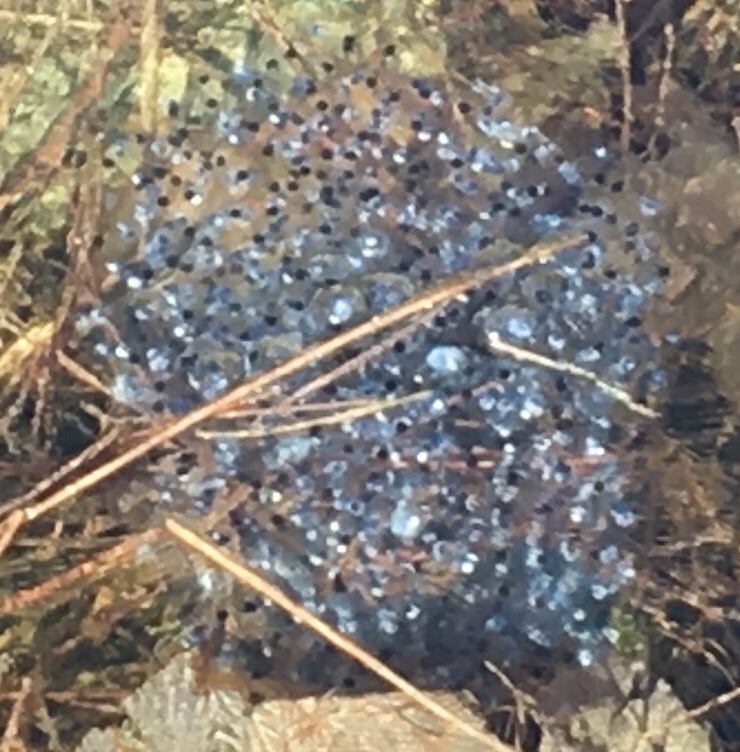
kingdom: Animalia
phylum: Chordata
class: Amphibia
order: Anura
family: Ranidae
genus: Lithobates
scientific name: Lithobates sylvaticus
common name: Wood frog
